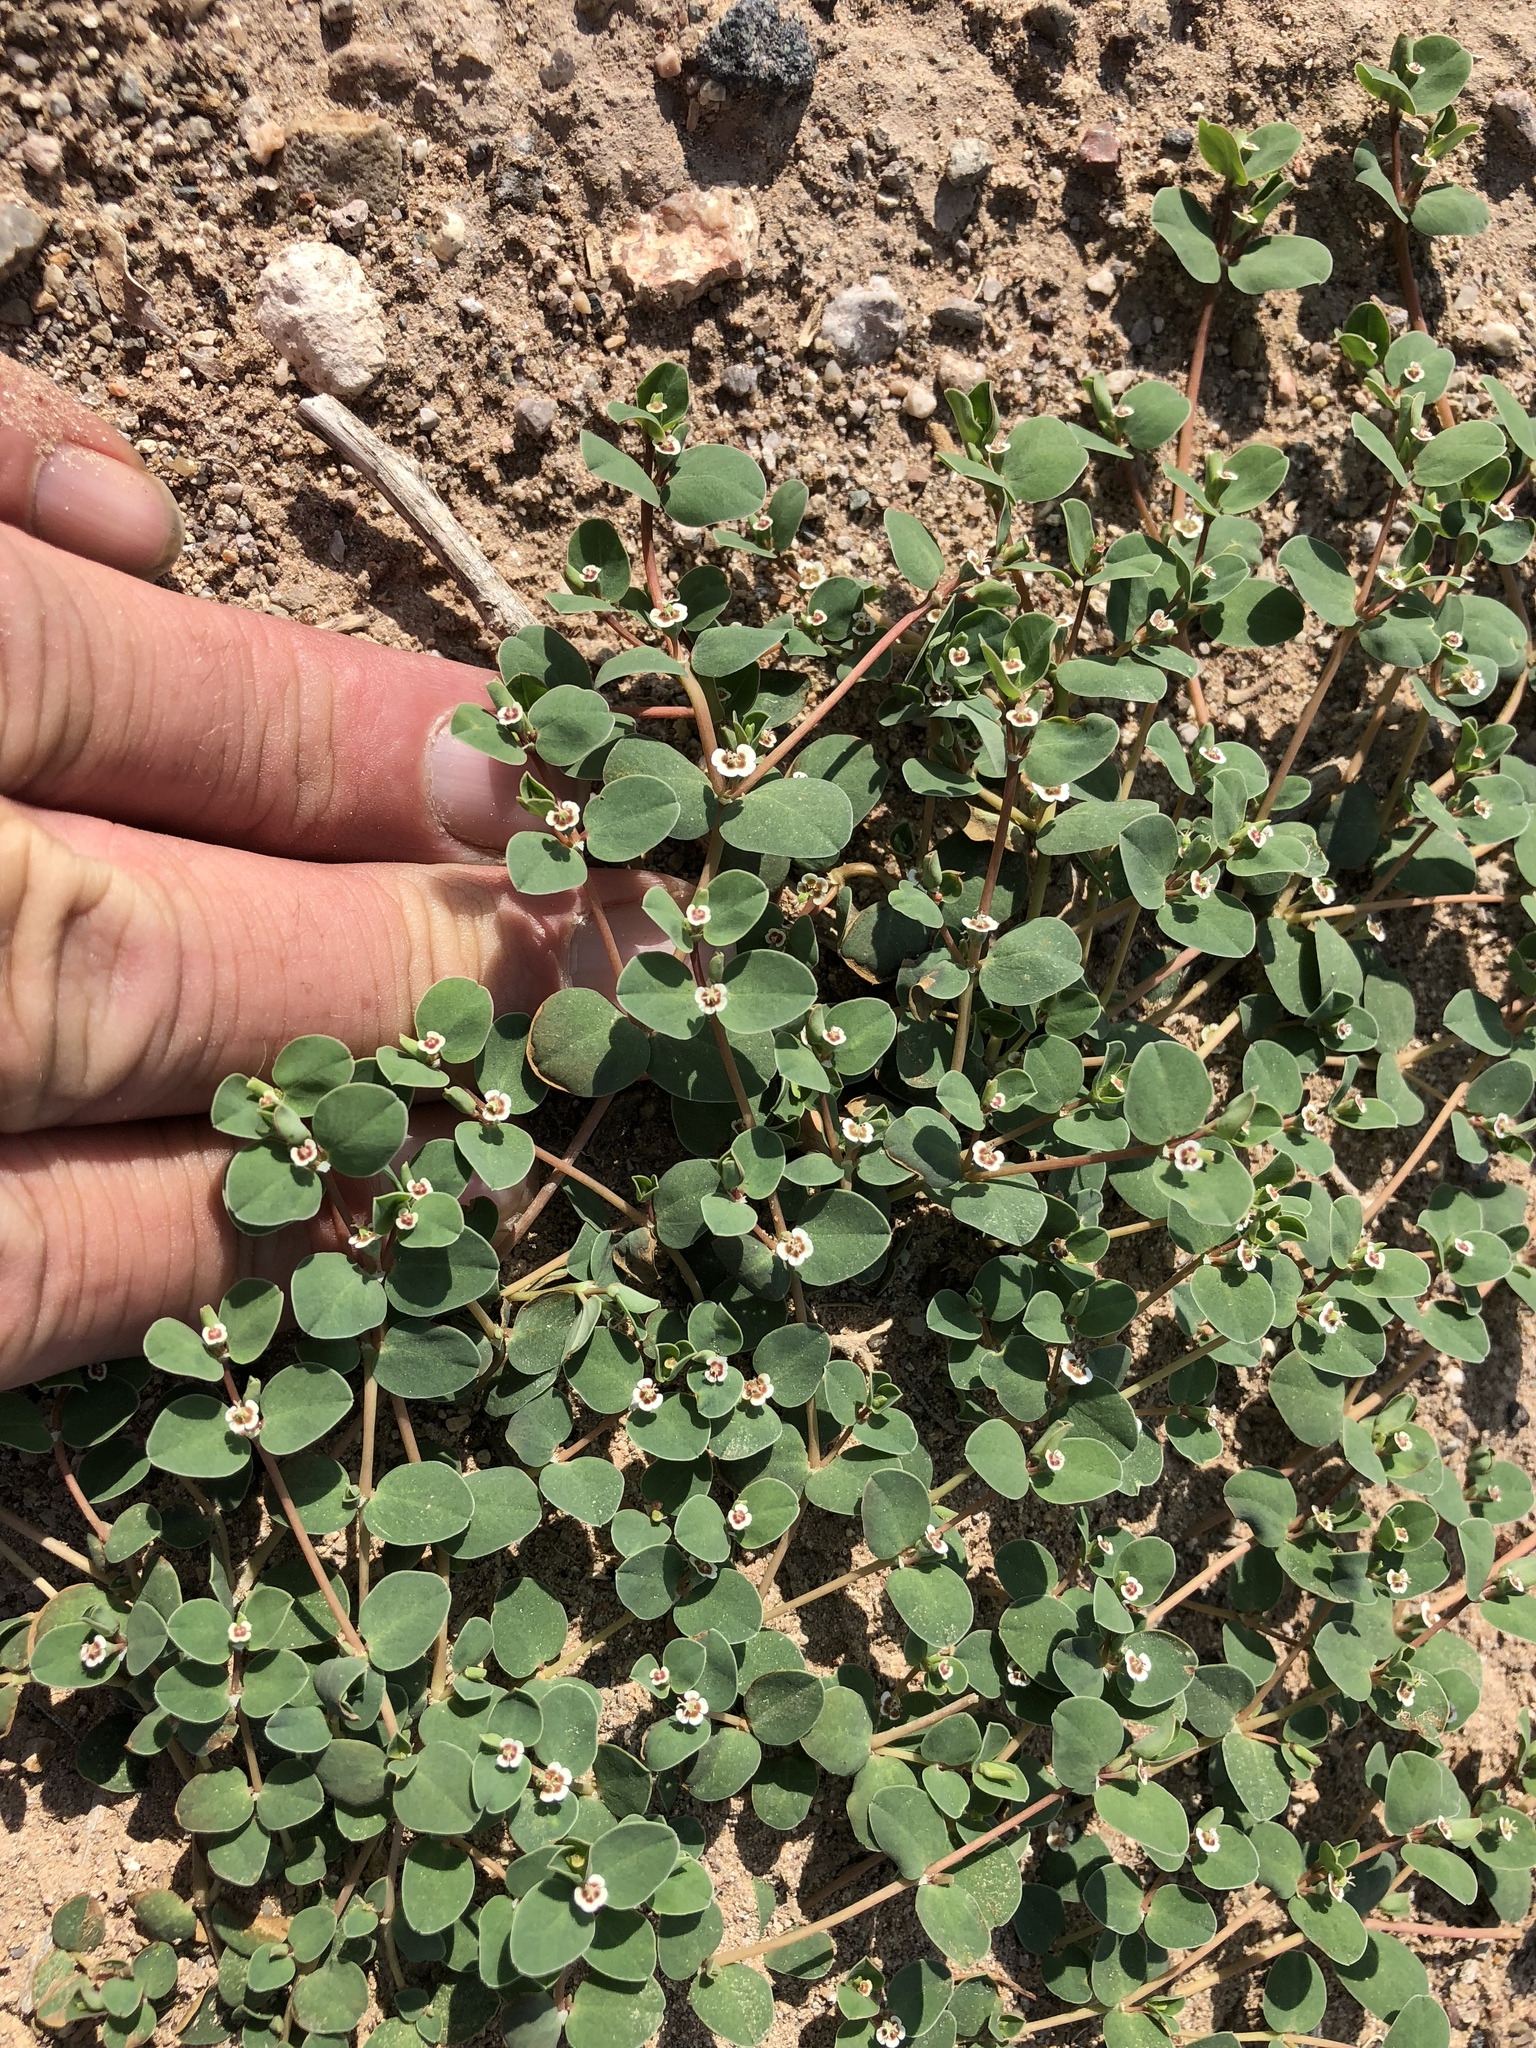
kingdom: Plantae
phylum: Tracheophyta
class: Magnoliopsida
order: Malpighiales
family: Euphorbiaceae
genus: Euphorbia
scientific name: Euphorbia albomarginata
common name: Whitemargin sandmat
